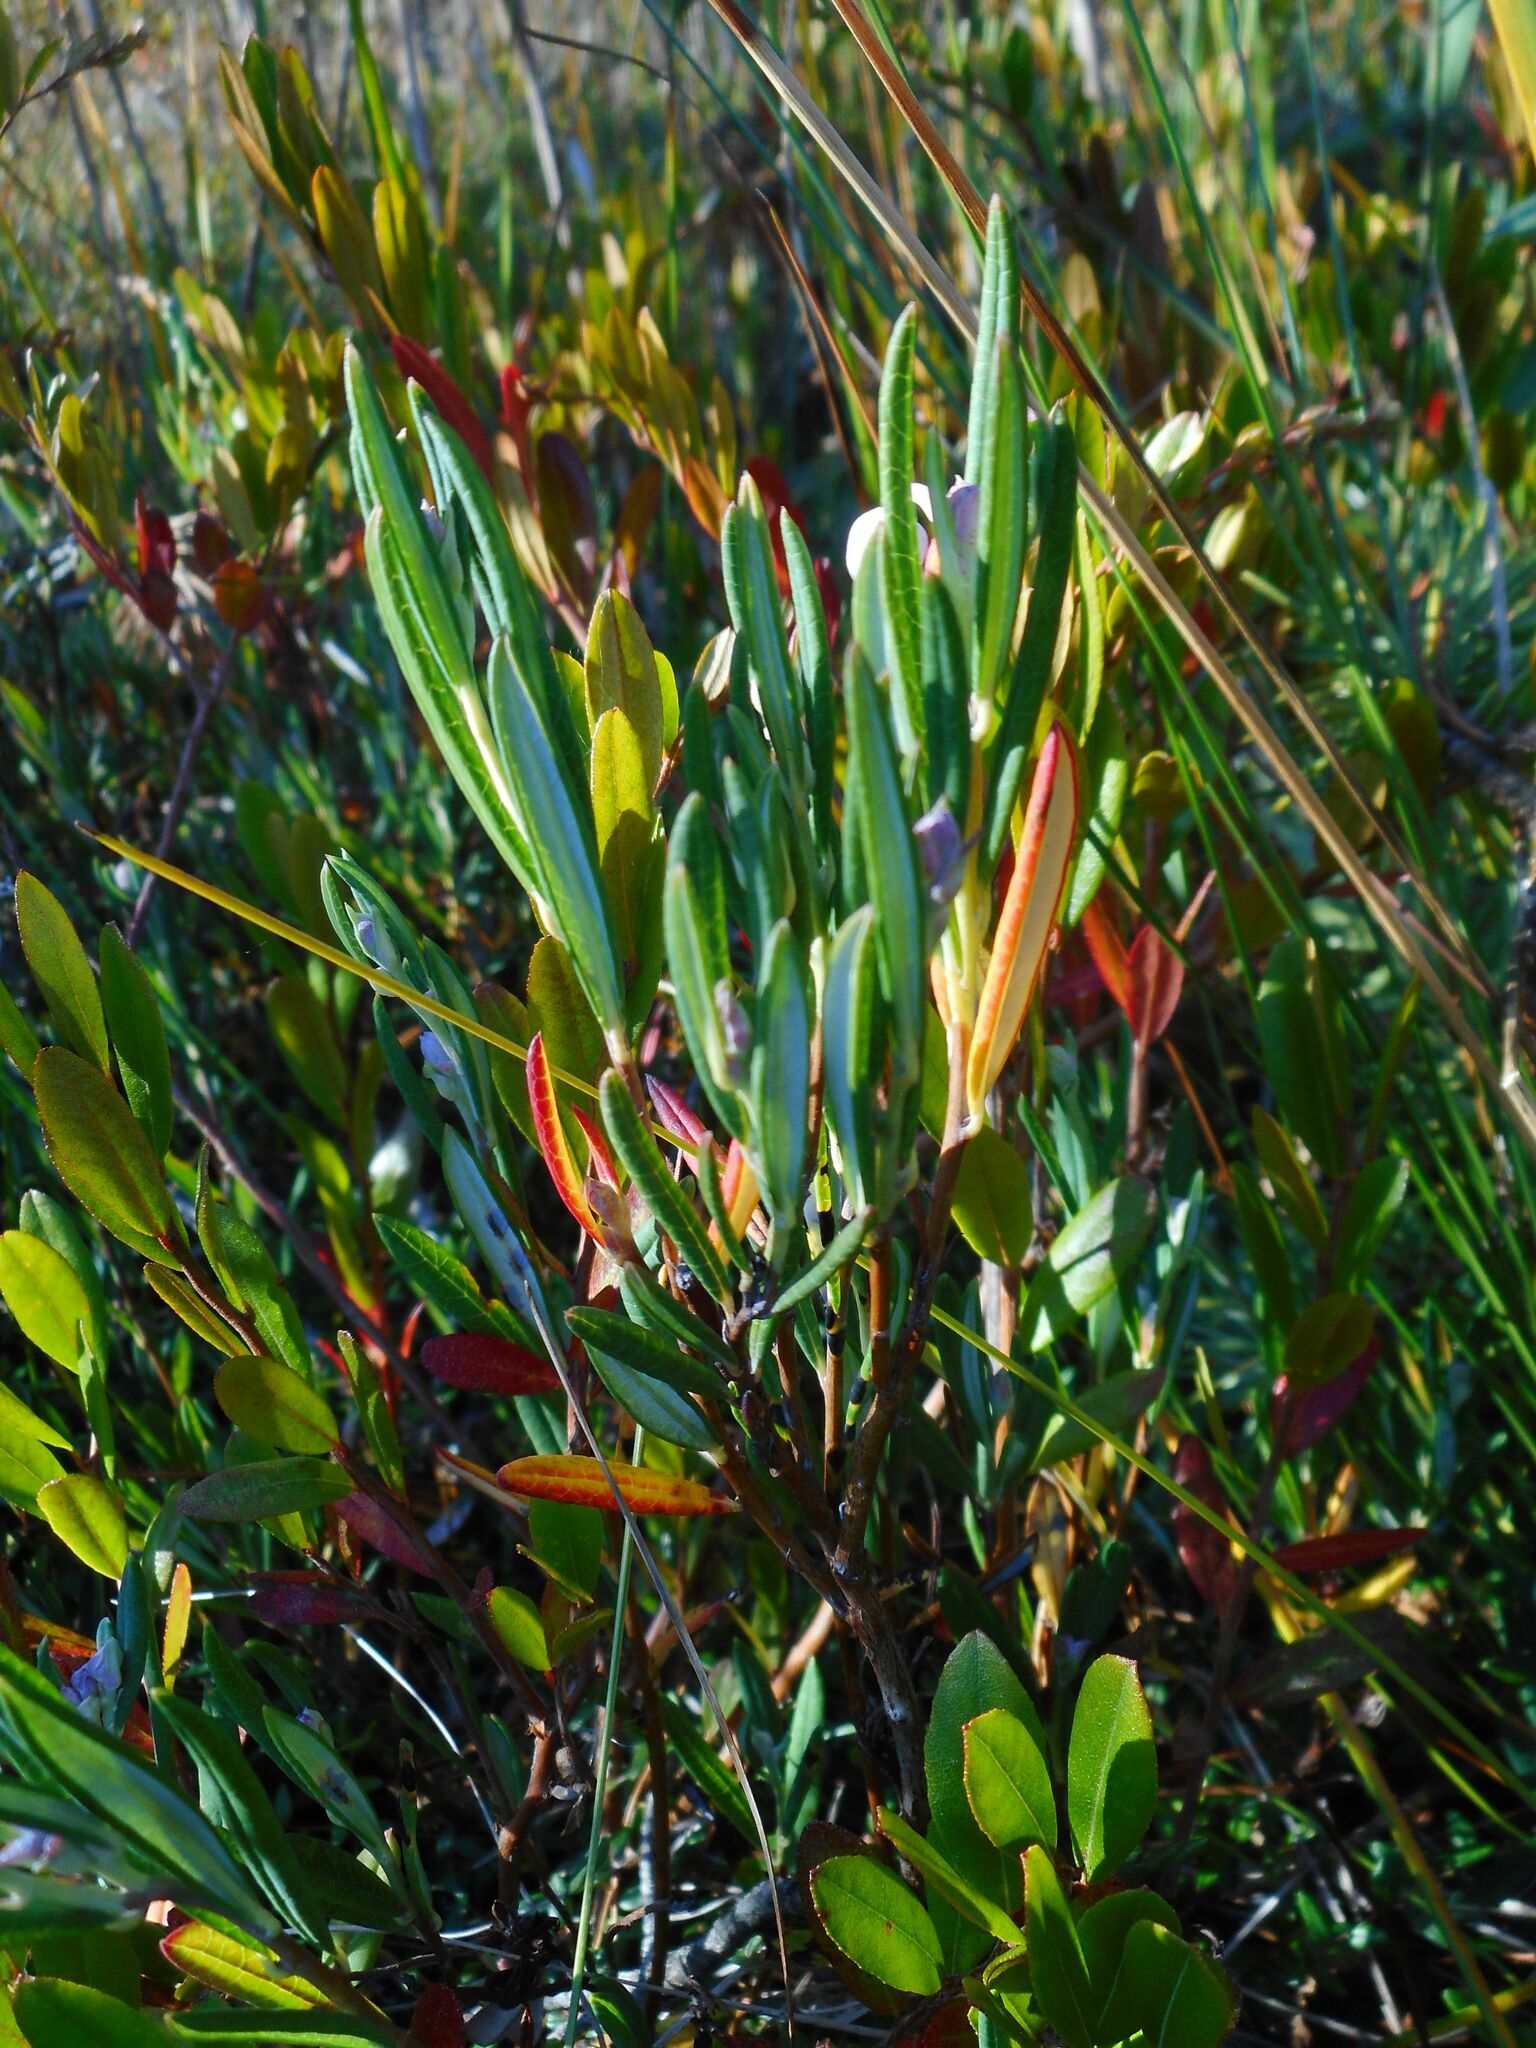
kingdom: Plantae
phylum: Tracheophyta
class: Magnoliopsida
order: Ericales
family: Ericaceae
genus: Andromeda
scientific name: Andromeda polifolia
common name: Bog-rosemary
